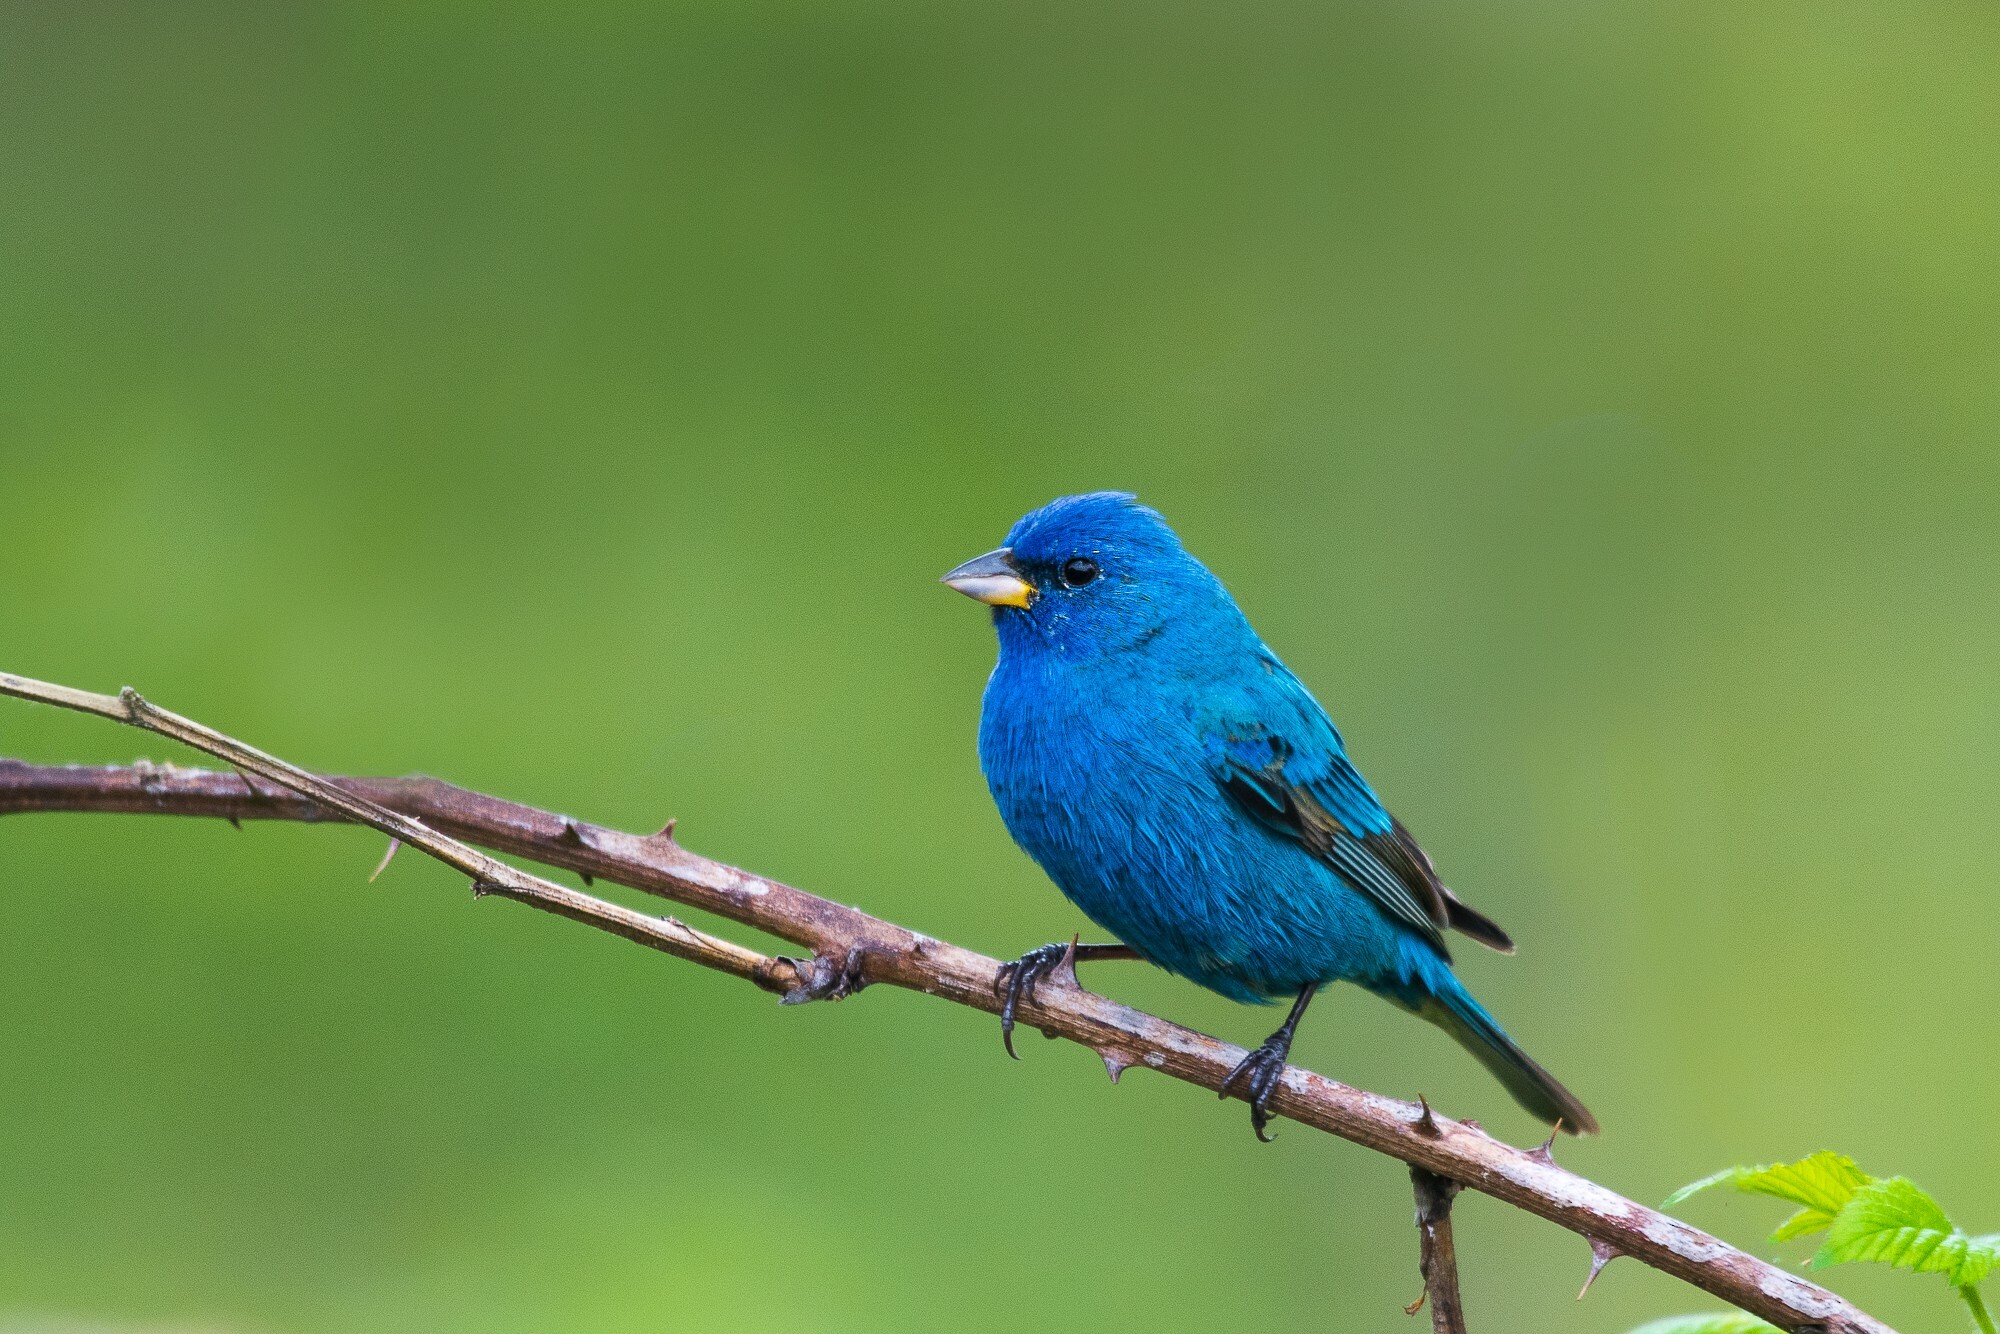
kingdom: Animalia
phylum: Chordata
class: Aves
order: Passeriformes
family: Cardinalidae
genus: Passerina
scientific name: Passerina cyanea
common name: Indigo bunting
